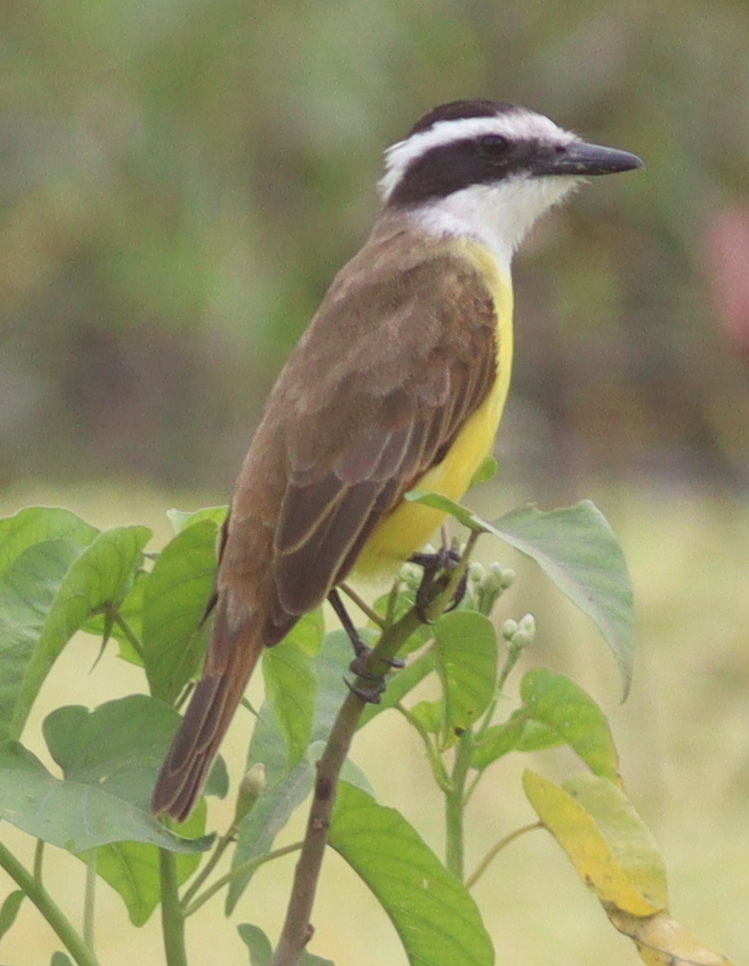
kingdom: Animalia
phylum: Chordata
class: Aves
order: Passeriformes
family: Tyrannidae
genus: Pitangus
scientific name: Pitangus sulphuratus
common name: Great kiskadee
